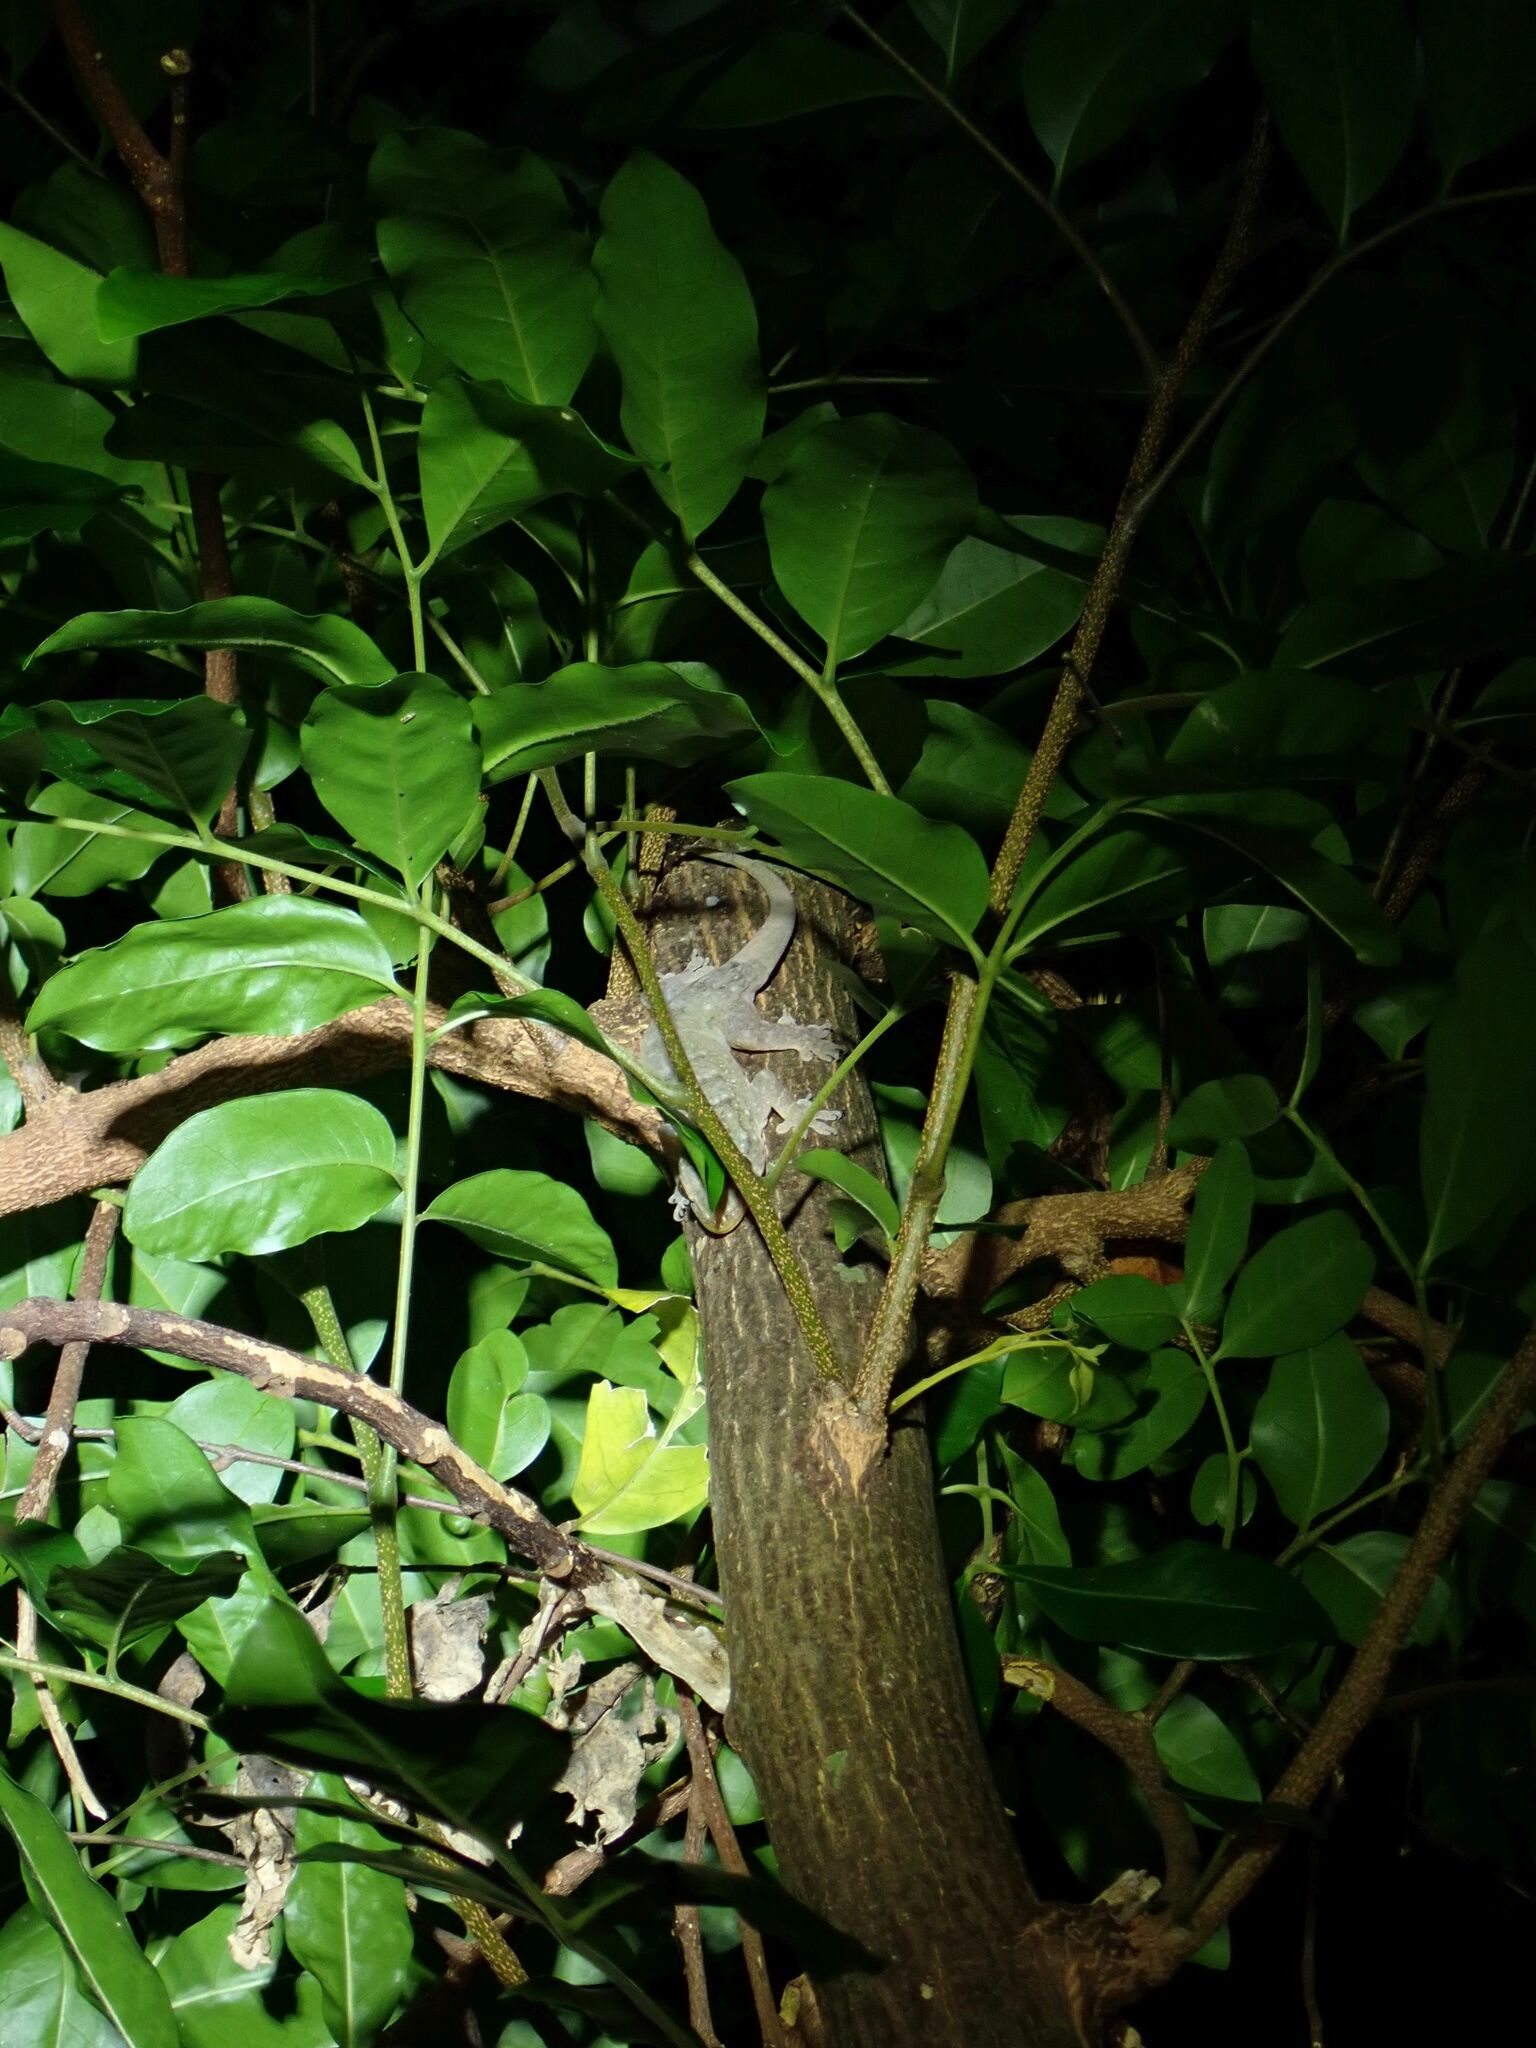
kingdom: Animalia
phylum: Chordata
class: Squamata
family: Gekkonidae
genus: Gehyra
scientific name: Gehyra oceanica
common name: Pacific dtella
